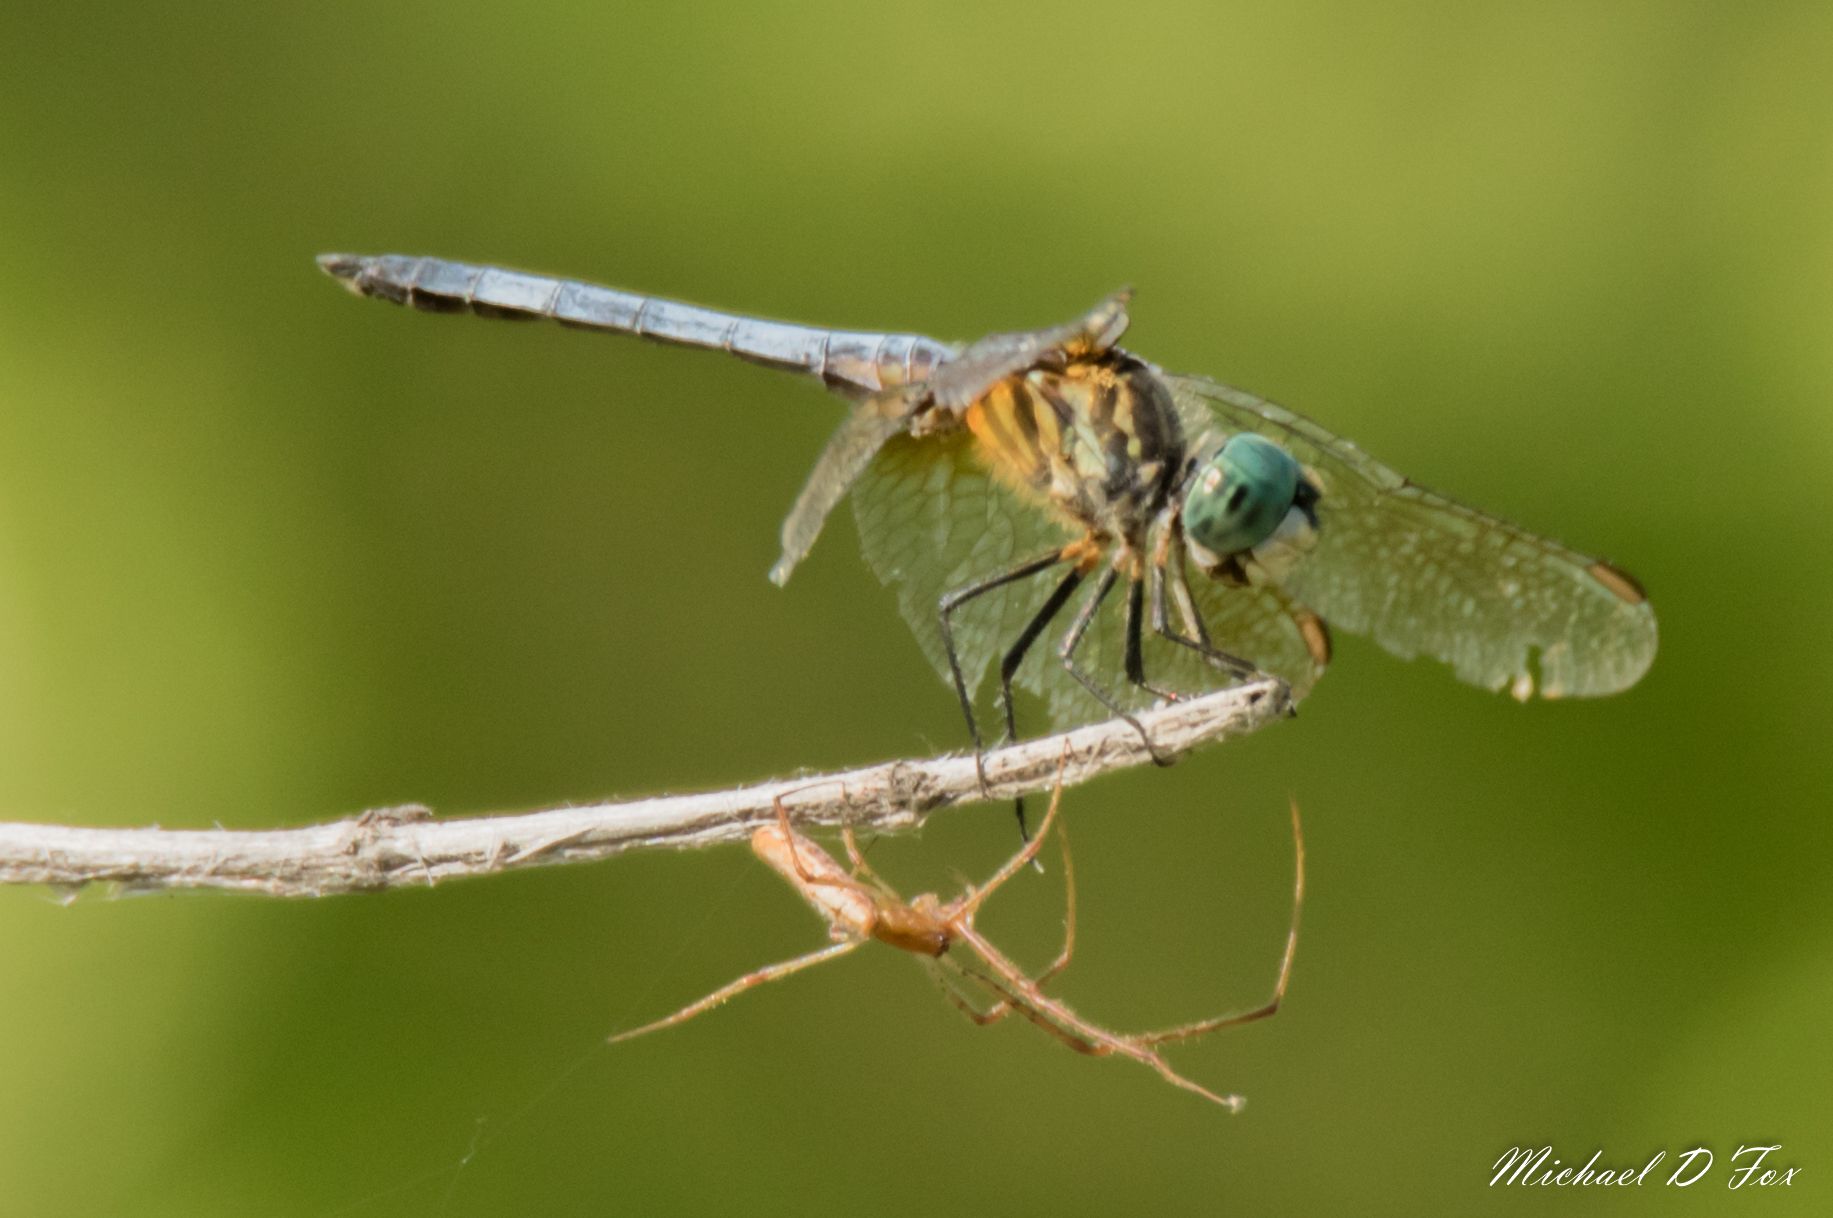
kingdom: Animalia
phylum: Arthropoda
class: Insecta
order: Odonata
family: Libellulidae
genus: Pachydiplax
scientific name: Pachydiplax longipennis
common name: Blue dasher
